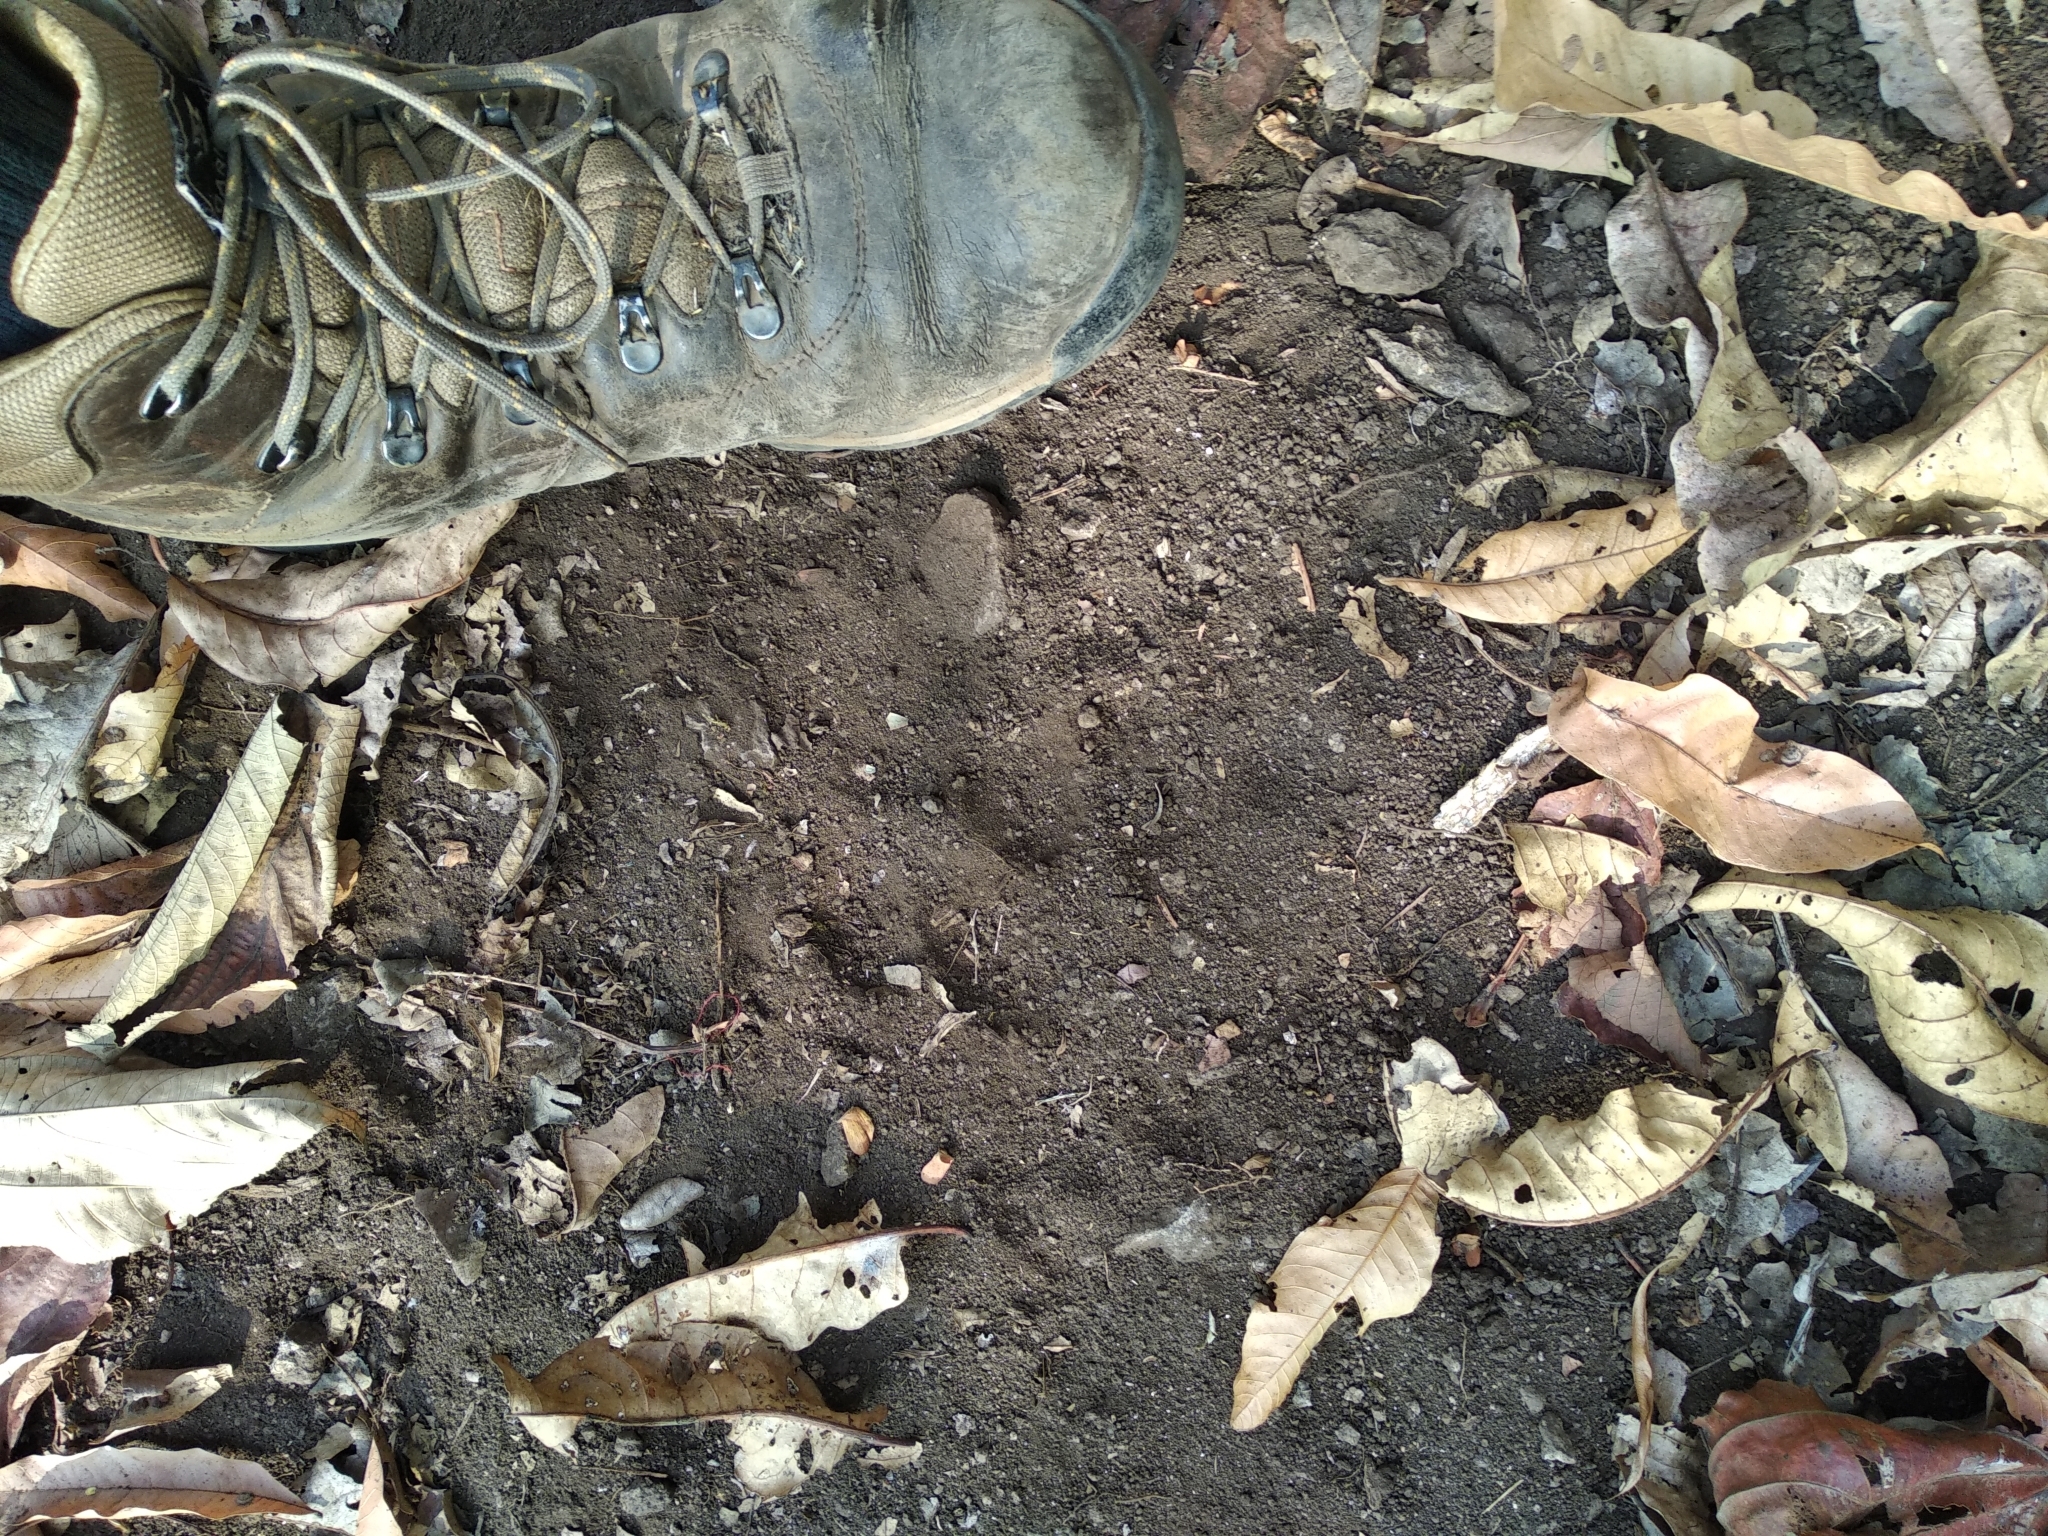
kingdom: Animalia
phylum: Chordata
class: Mammalia
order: Carnivora
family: Felidae
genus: Panthera
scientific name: Panthera tigris
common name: Tiger
